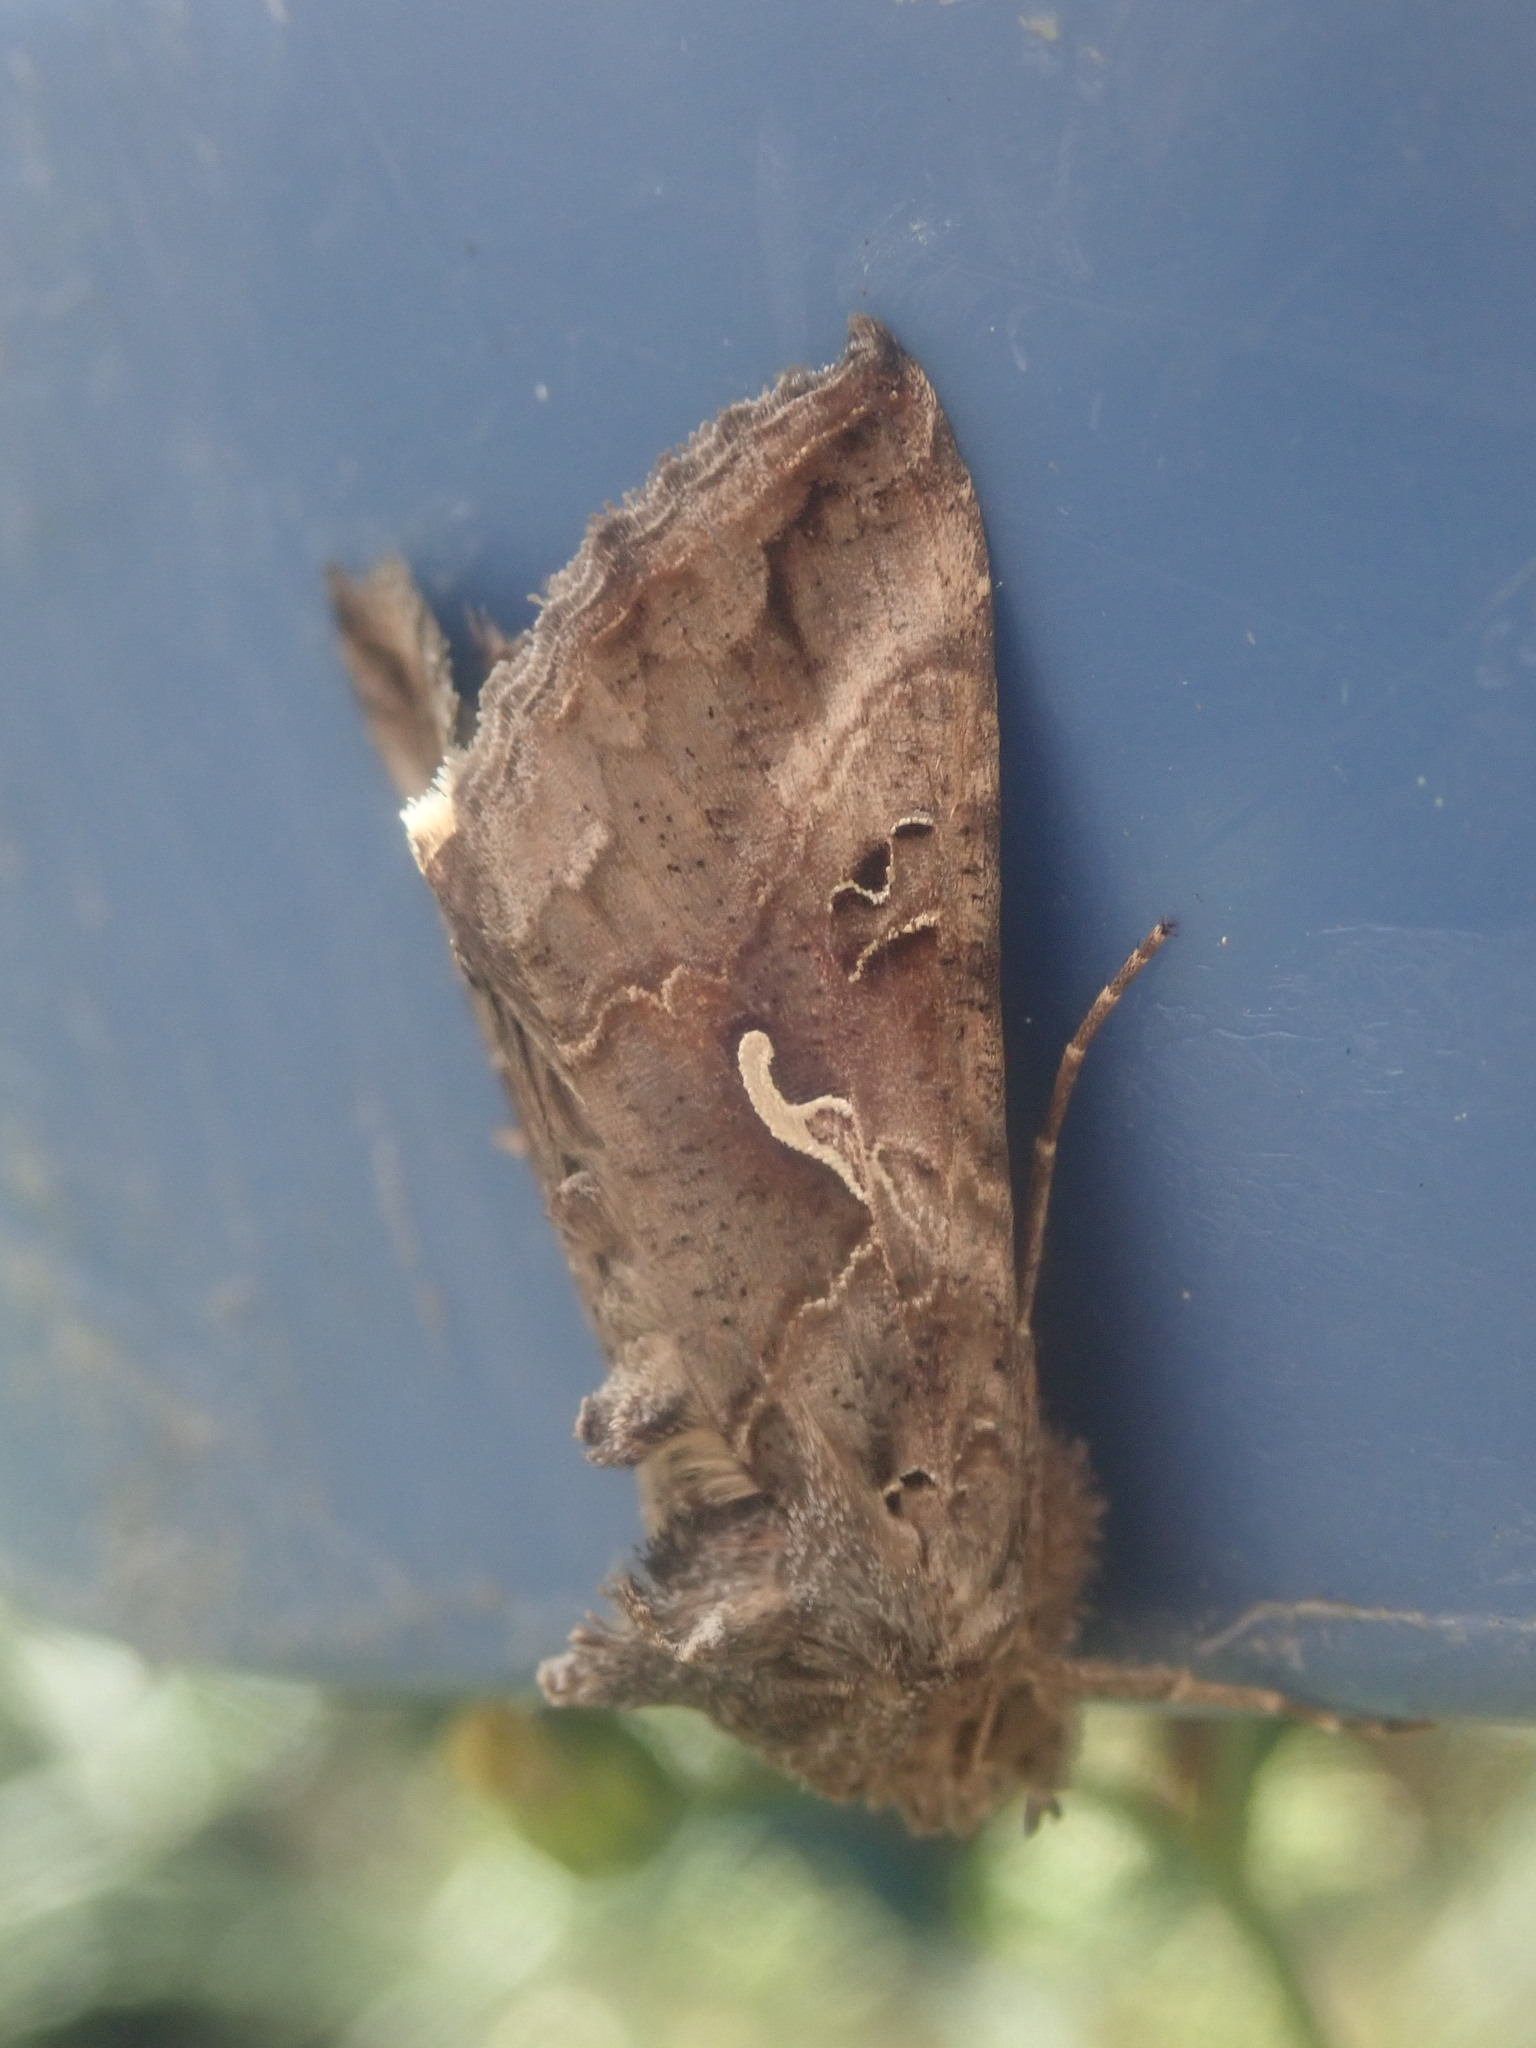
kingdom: Animalia
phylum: Arthropoda
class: Insecta
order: Lepidoptera
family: Noctuidae
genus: Autographa
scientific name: Autographa gamma
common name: Silver y
